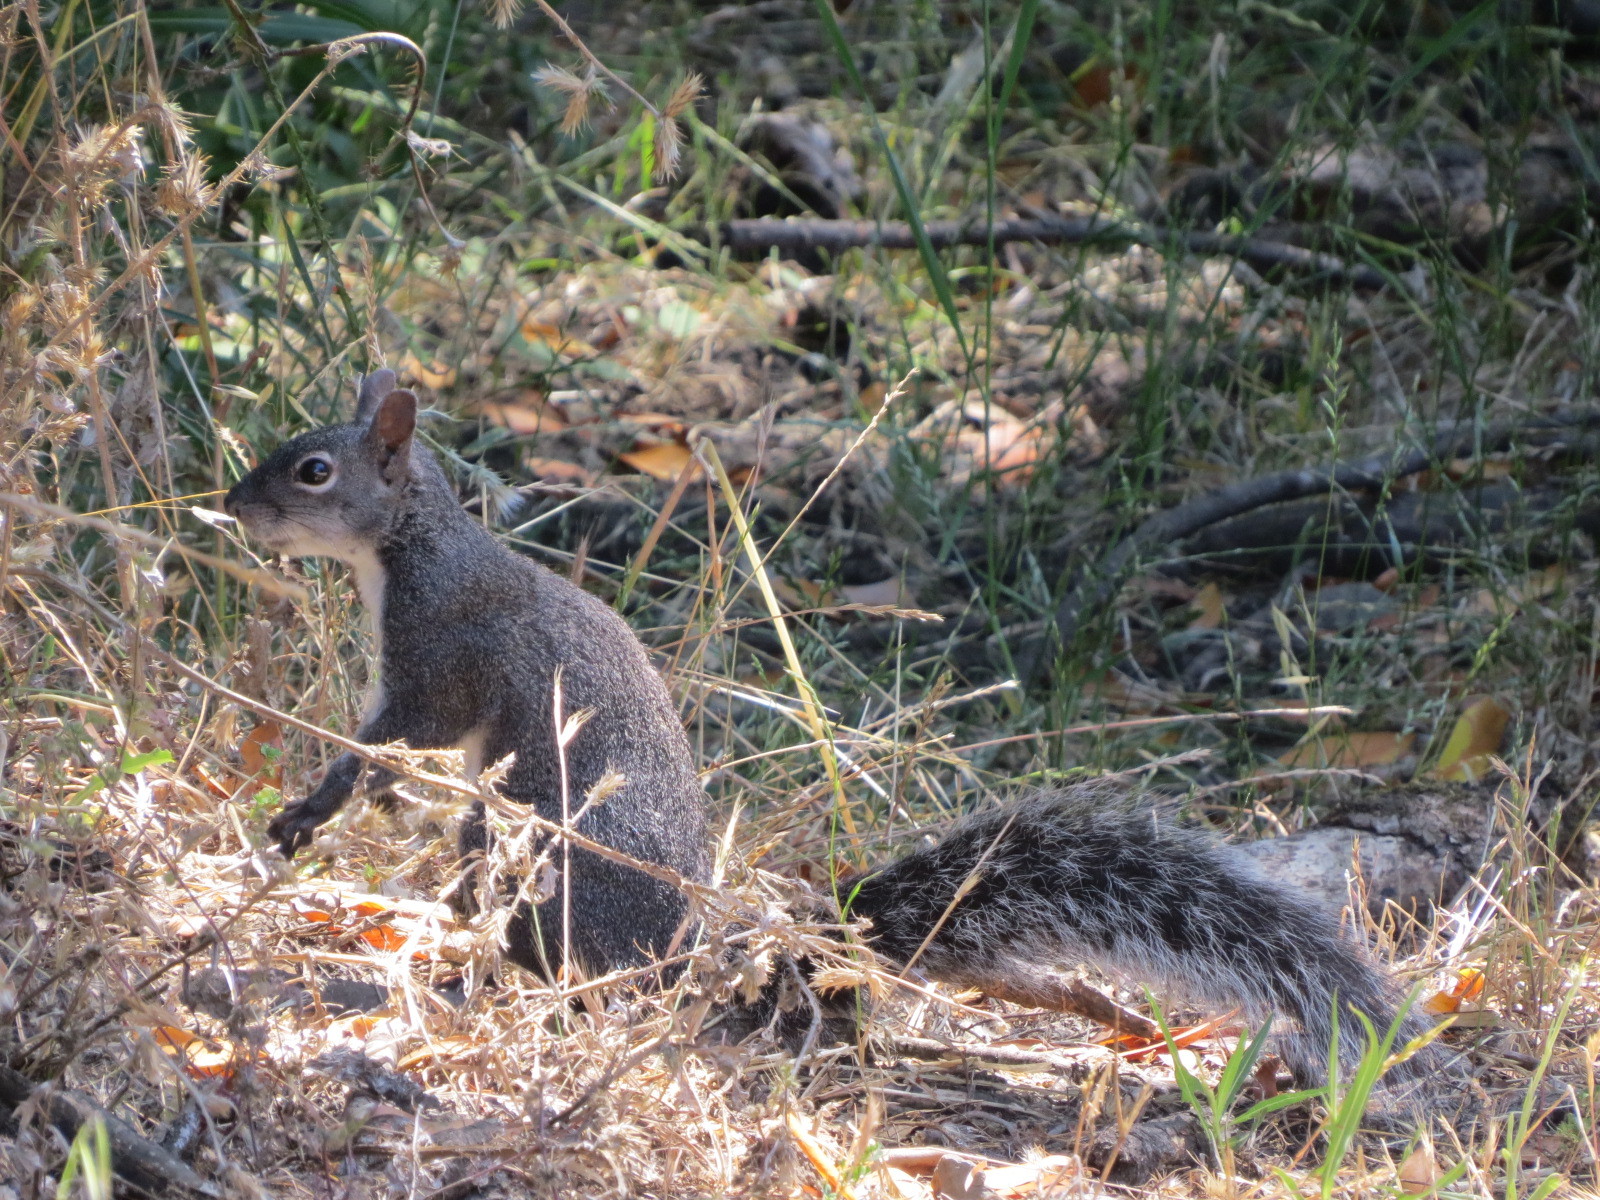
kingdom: Animalia
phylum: Chordata
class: Mammalia
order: Rodentia
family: Sciuridae
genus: Sciurus
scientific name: Sciurus griseus
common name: Western gray squirrel
